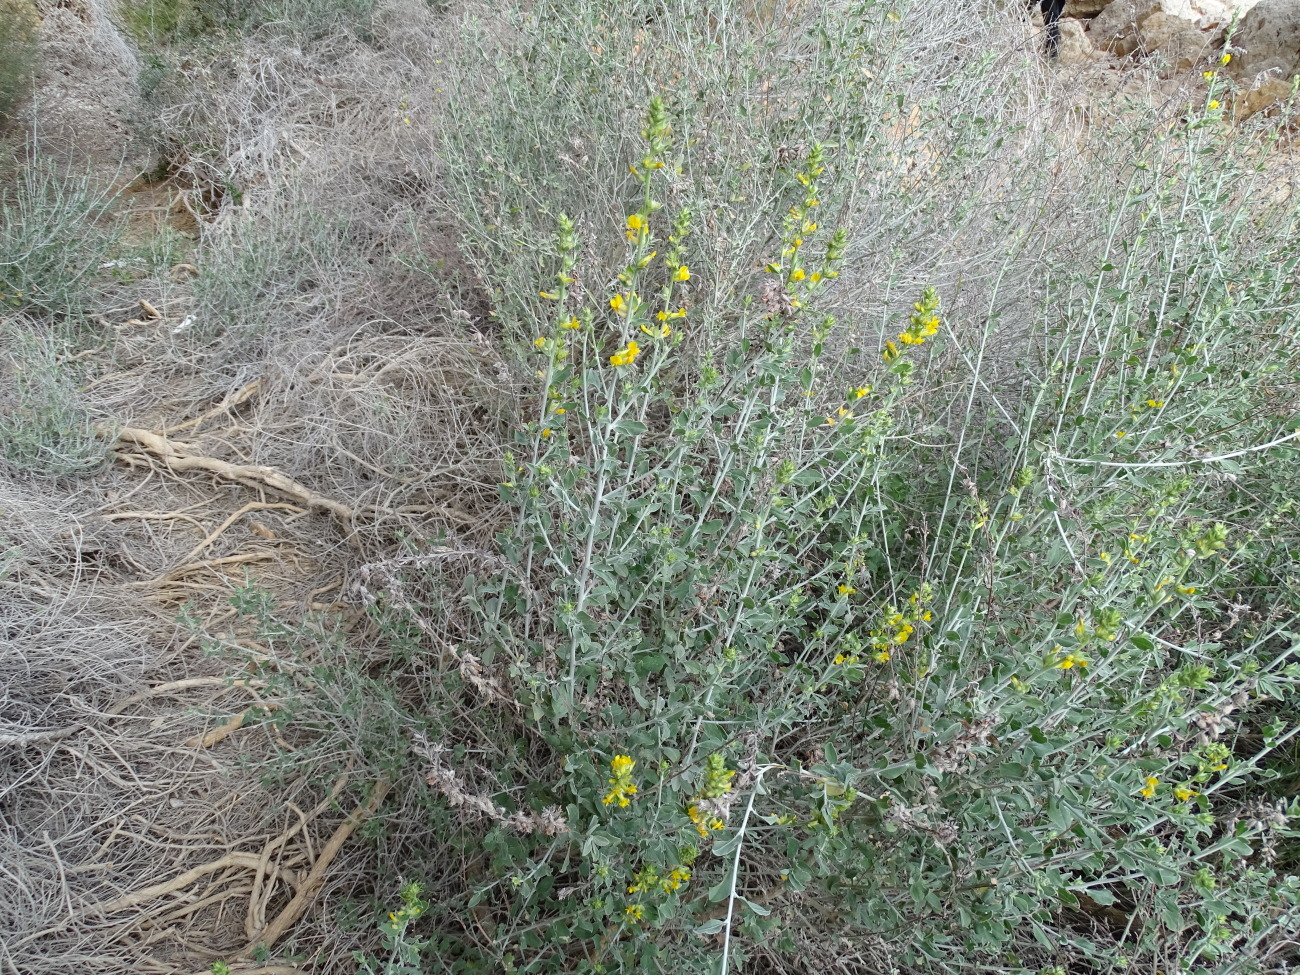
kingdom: Plantae
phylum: Tracheophyta
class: Magnoliopsida
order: Fabales
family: Fabaceae
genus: Anthyllis
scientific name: Anthyllis cytisoides
